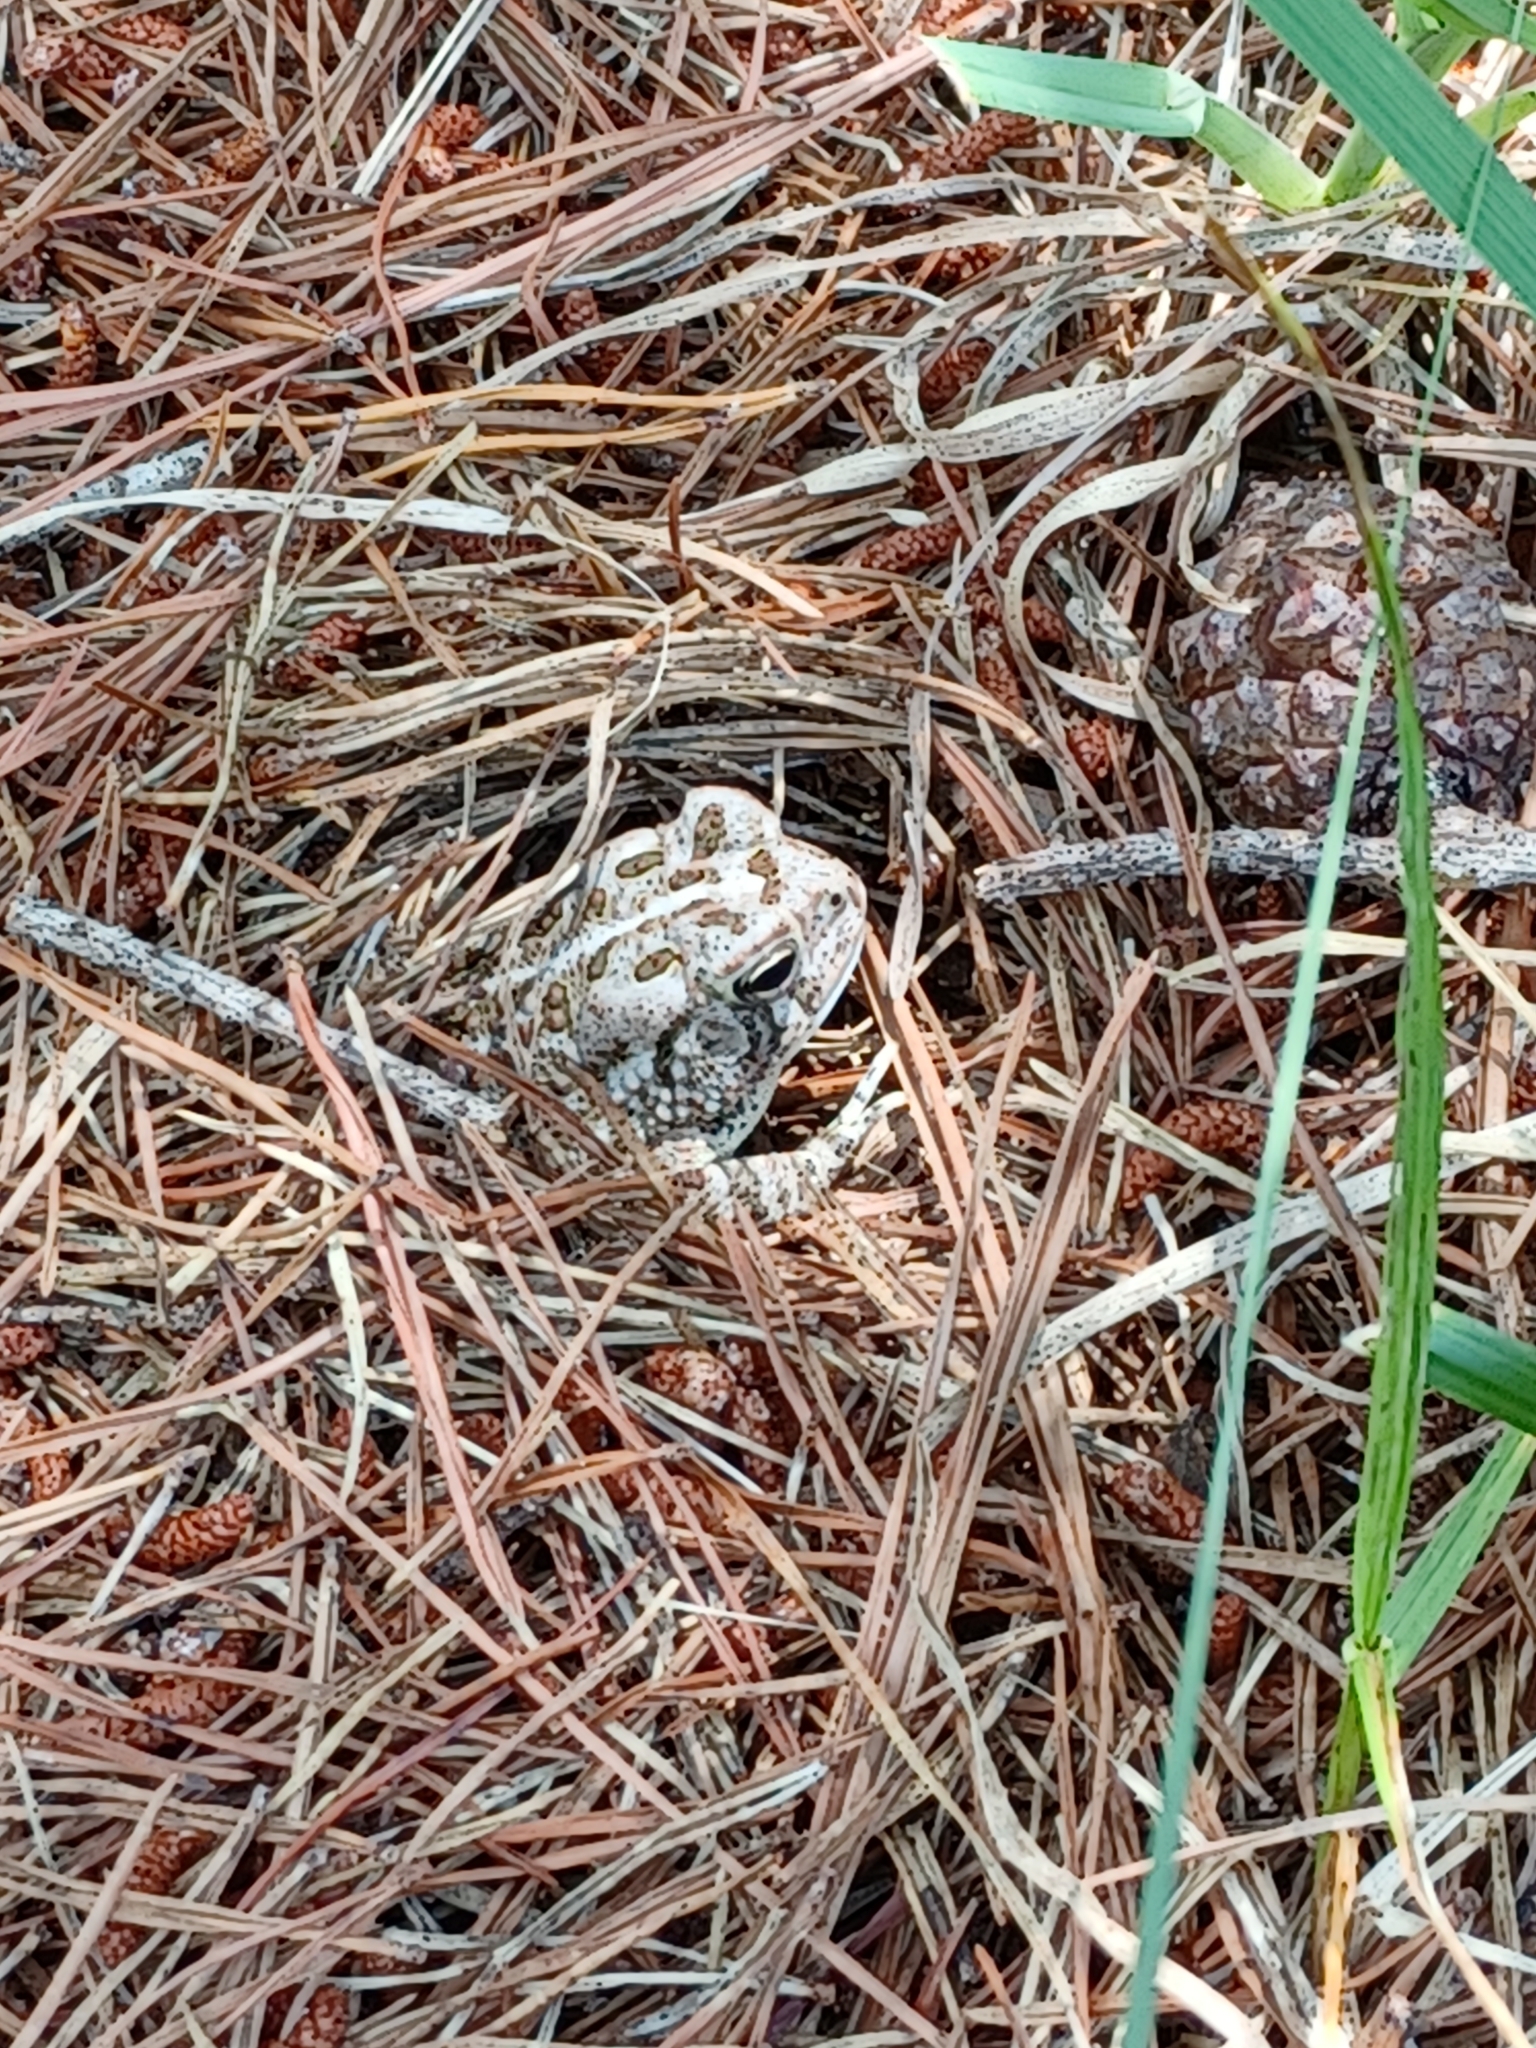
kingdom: Animalia
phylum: Chordata
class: Amphibia
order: Anura
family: Bufonidae
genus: Anaxyrus
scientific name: Anaxyrus fowleri
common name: Fowler's toad
